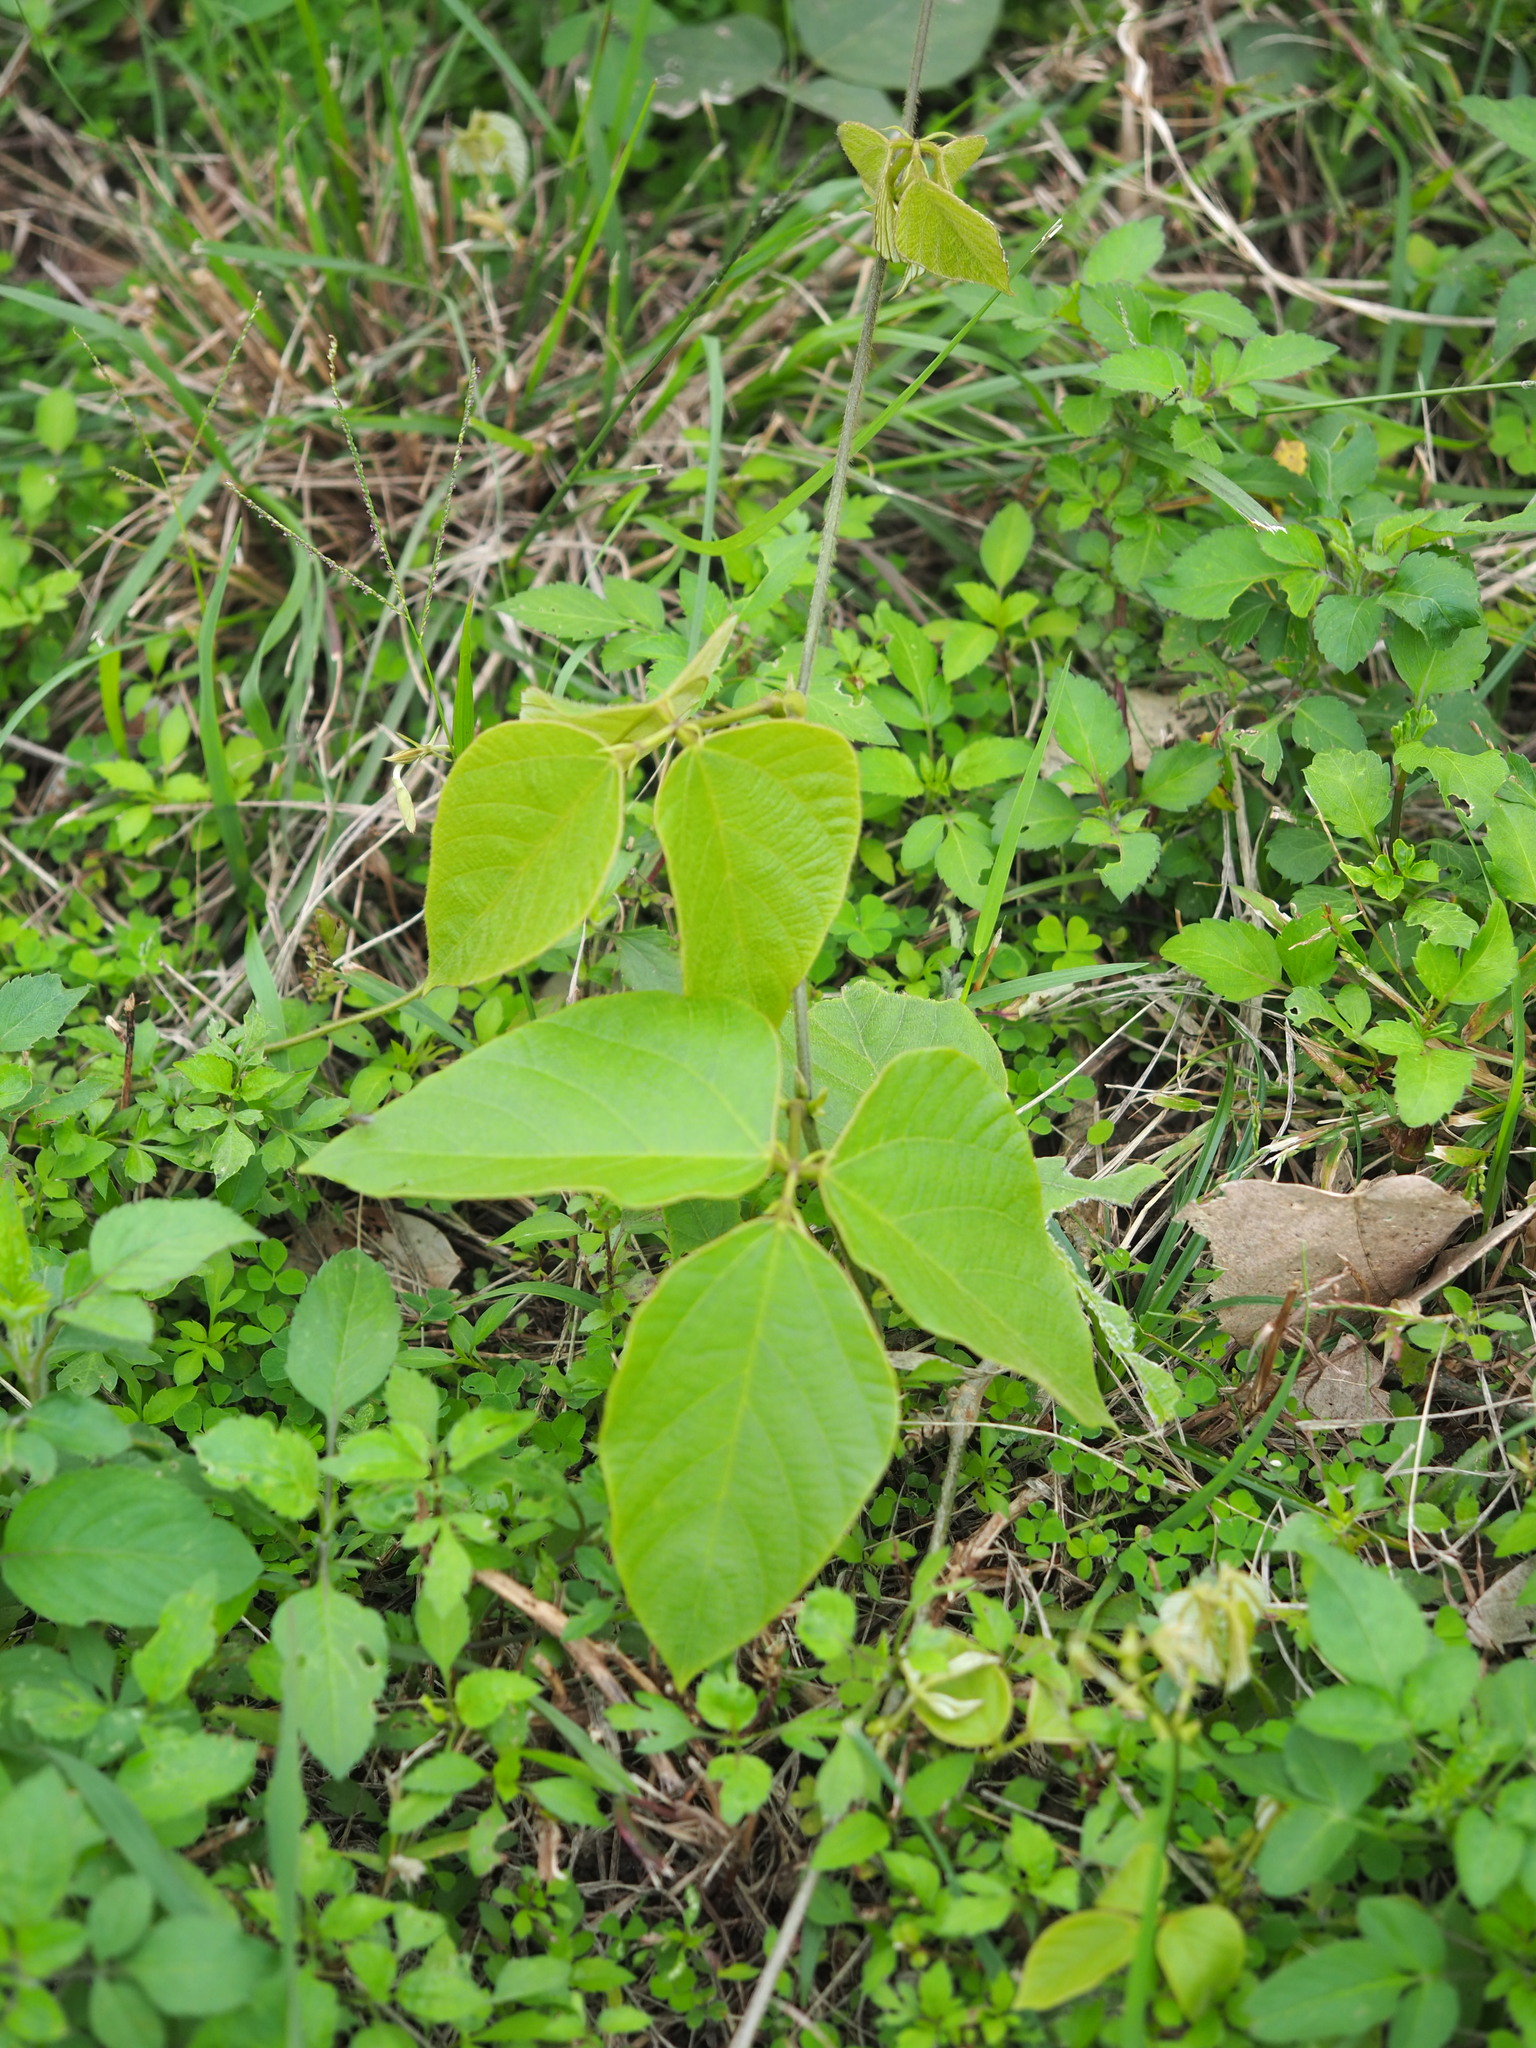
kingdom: Plantae
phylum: Tracheophyta
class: Magnoliopsida
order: Fabales
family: Fabaceae
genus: Pueraria
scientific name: Pueraria montana
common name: Kudzu
